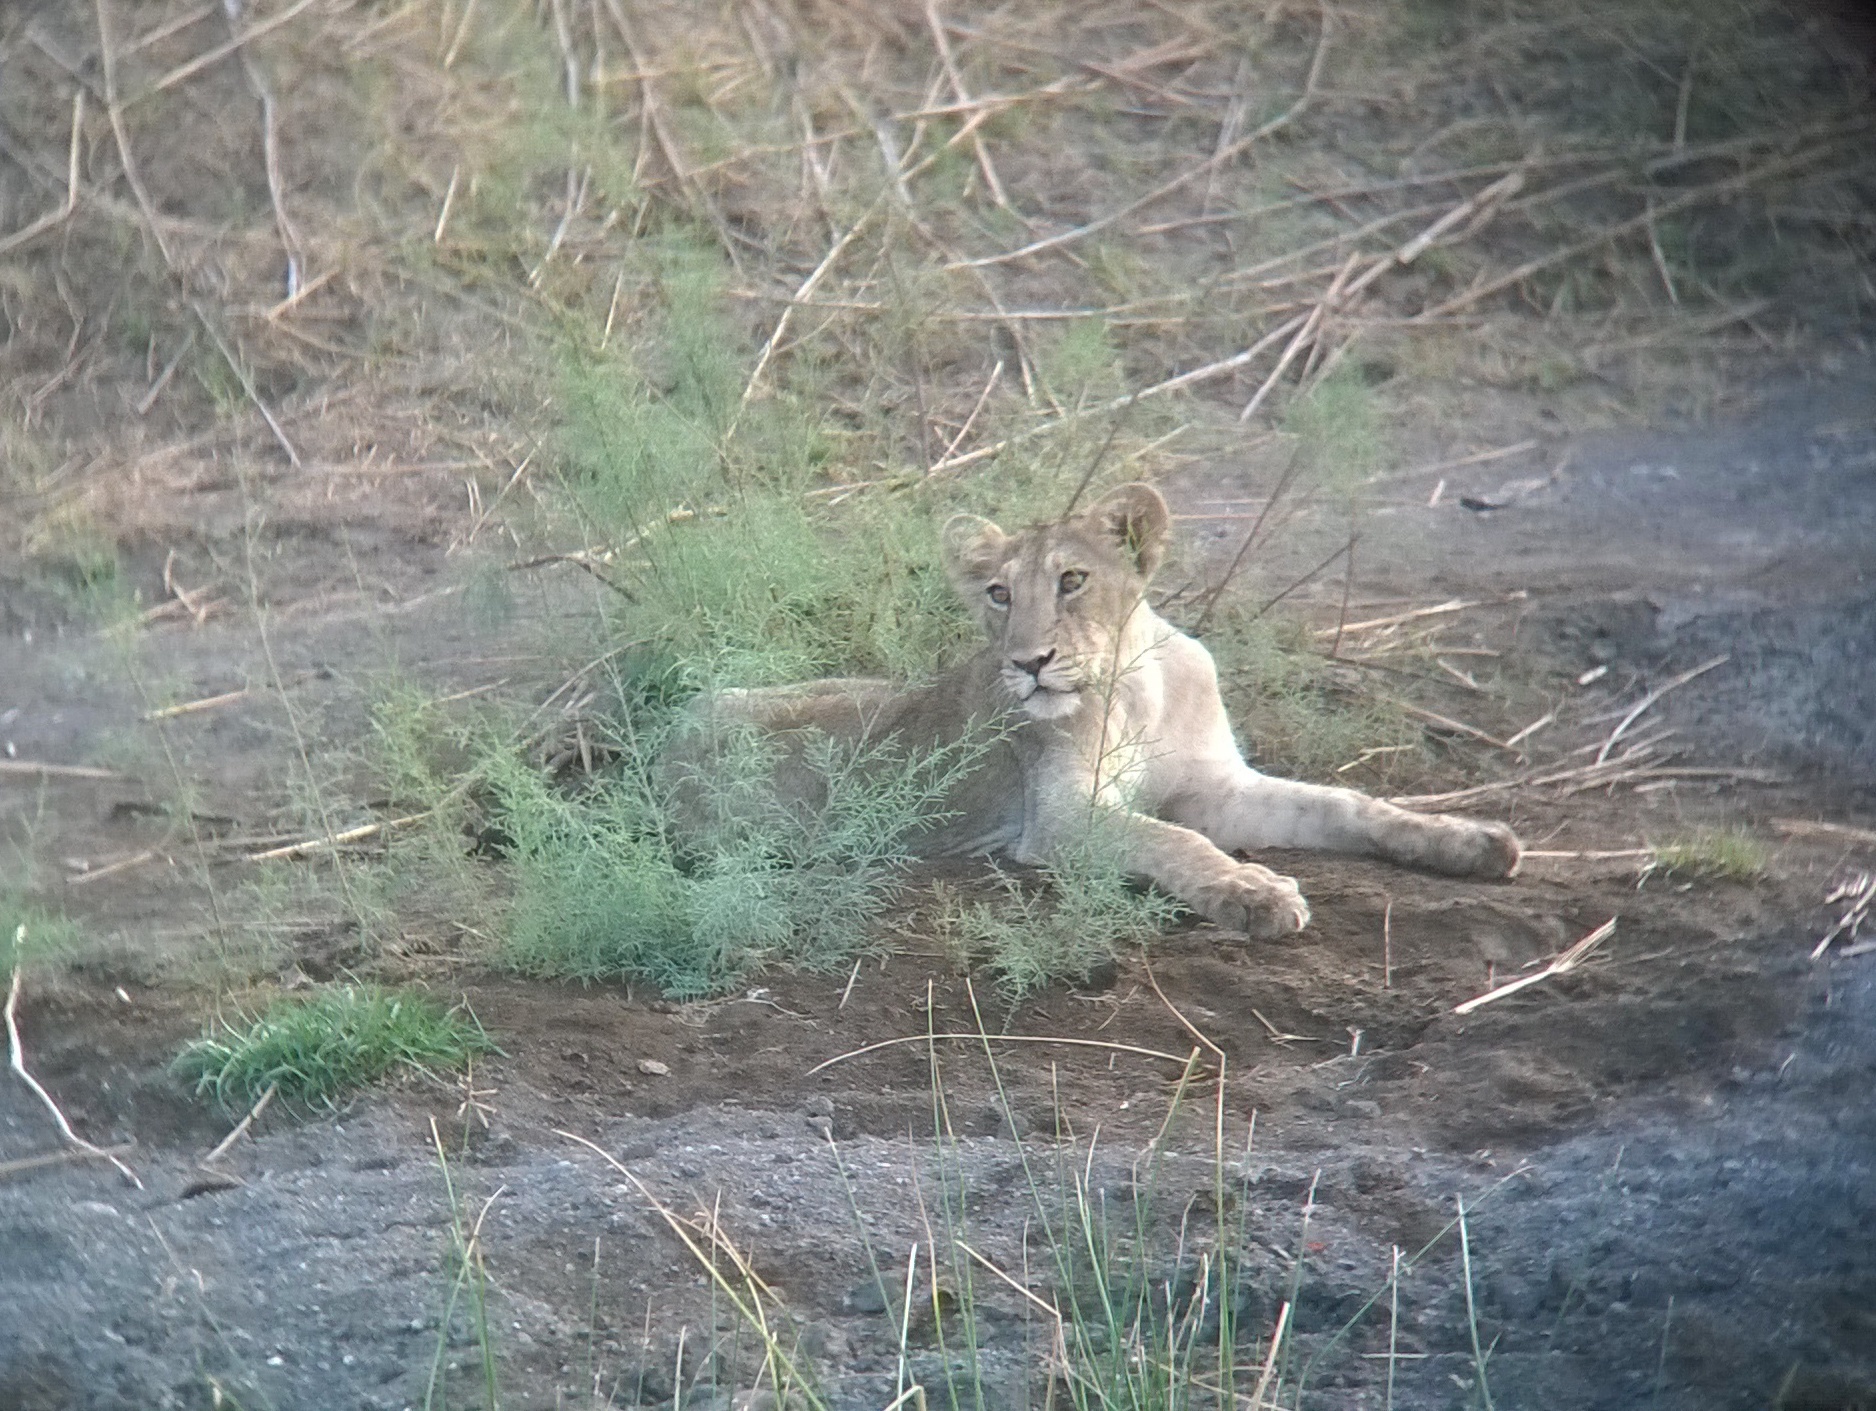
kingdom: Animalia
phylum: Chordata
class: Mammalia
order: Carnivora
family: Felidae
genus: Panthera
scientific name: Panthera leo
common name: Lion
